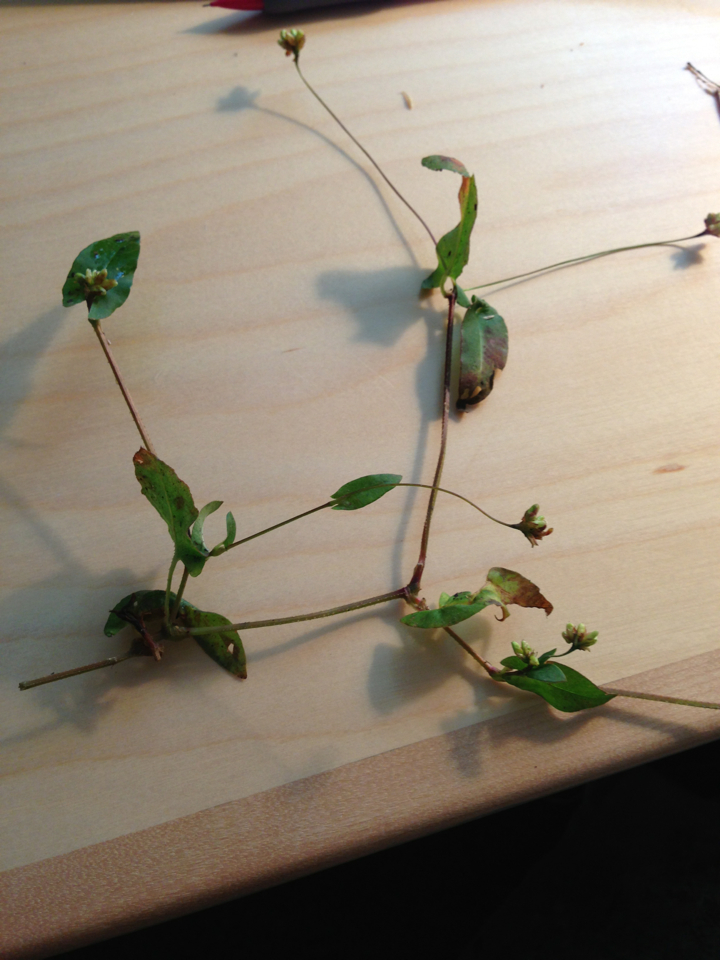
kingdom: Plantae
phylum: Tracheophyta
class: Magnoliopsida
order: Caryophyllales
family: Polygonaceae
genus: Persicaria
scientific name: Persicaria sagittata
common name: American tearthumb
